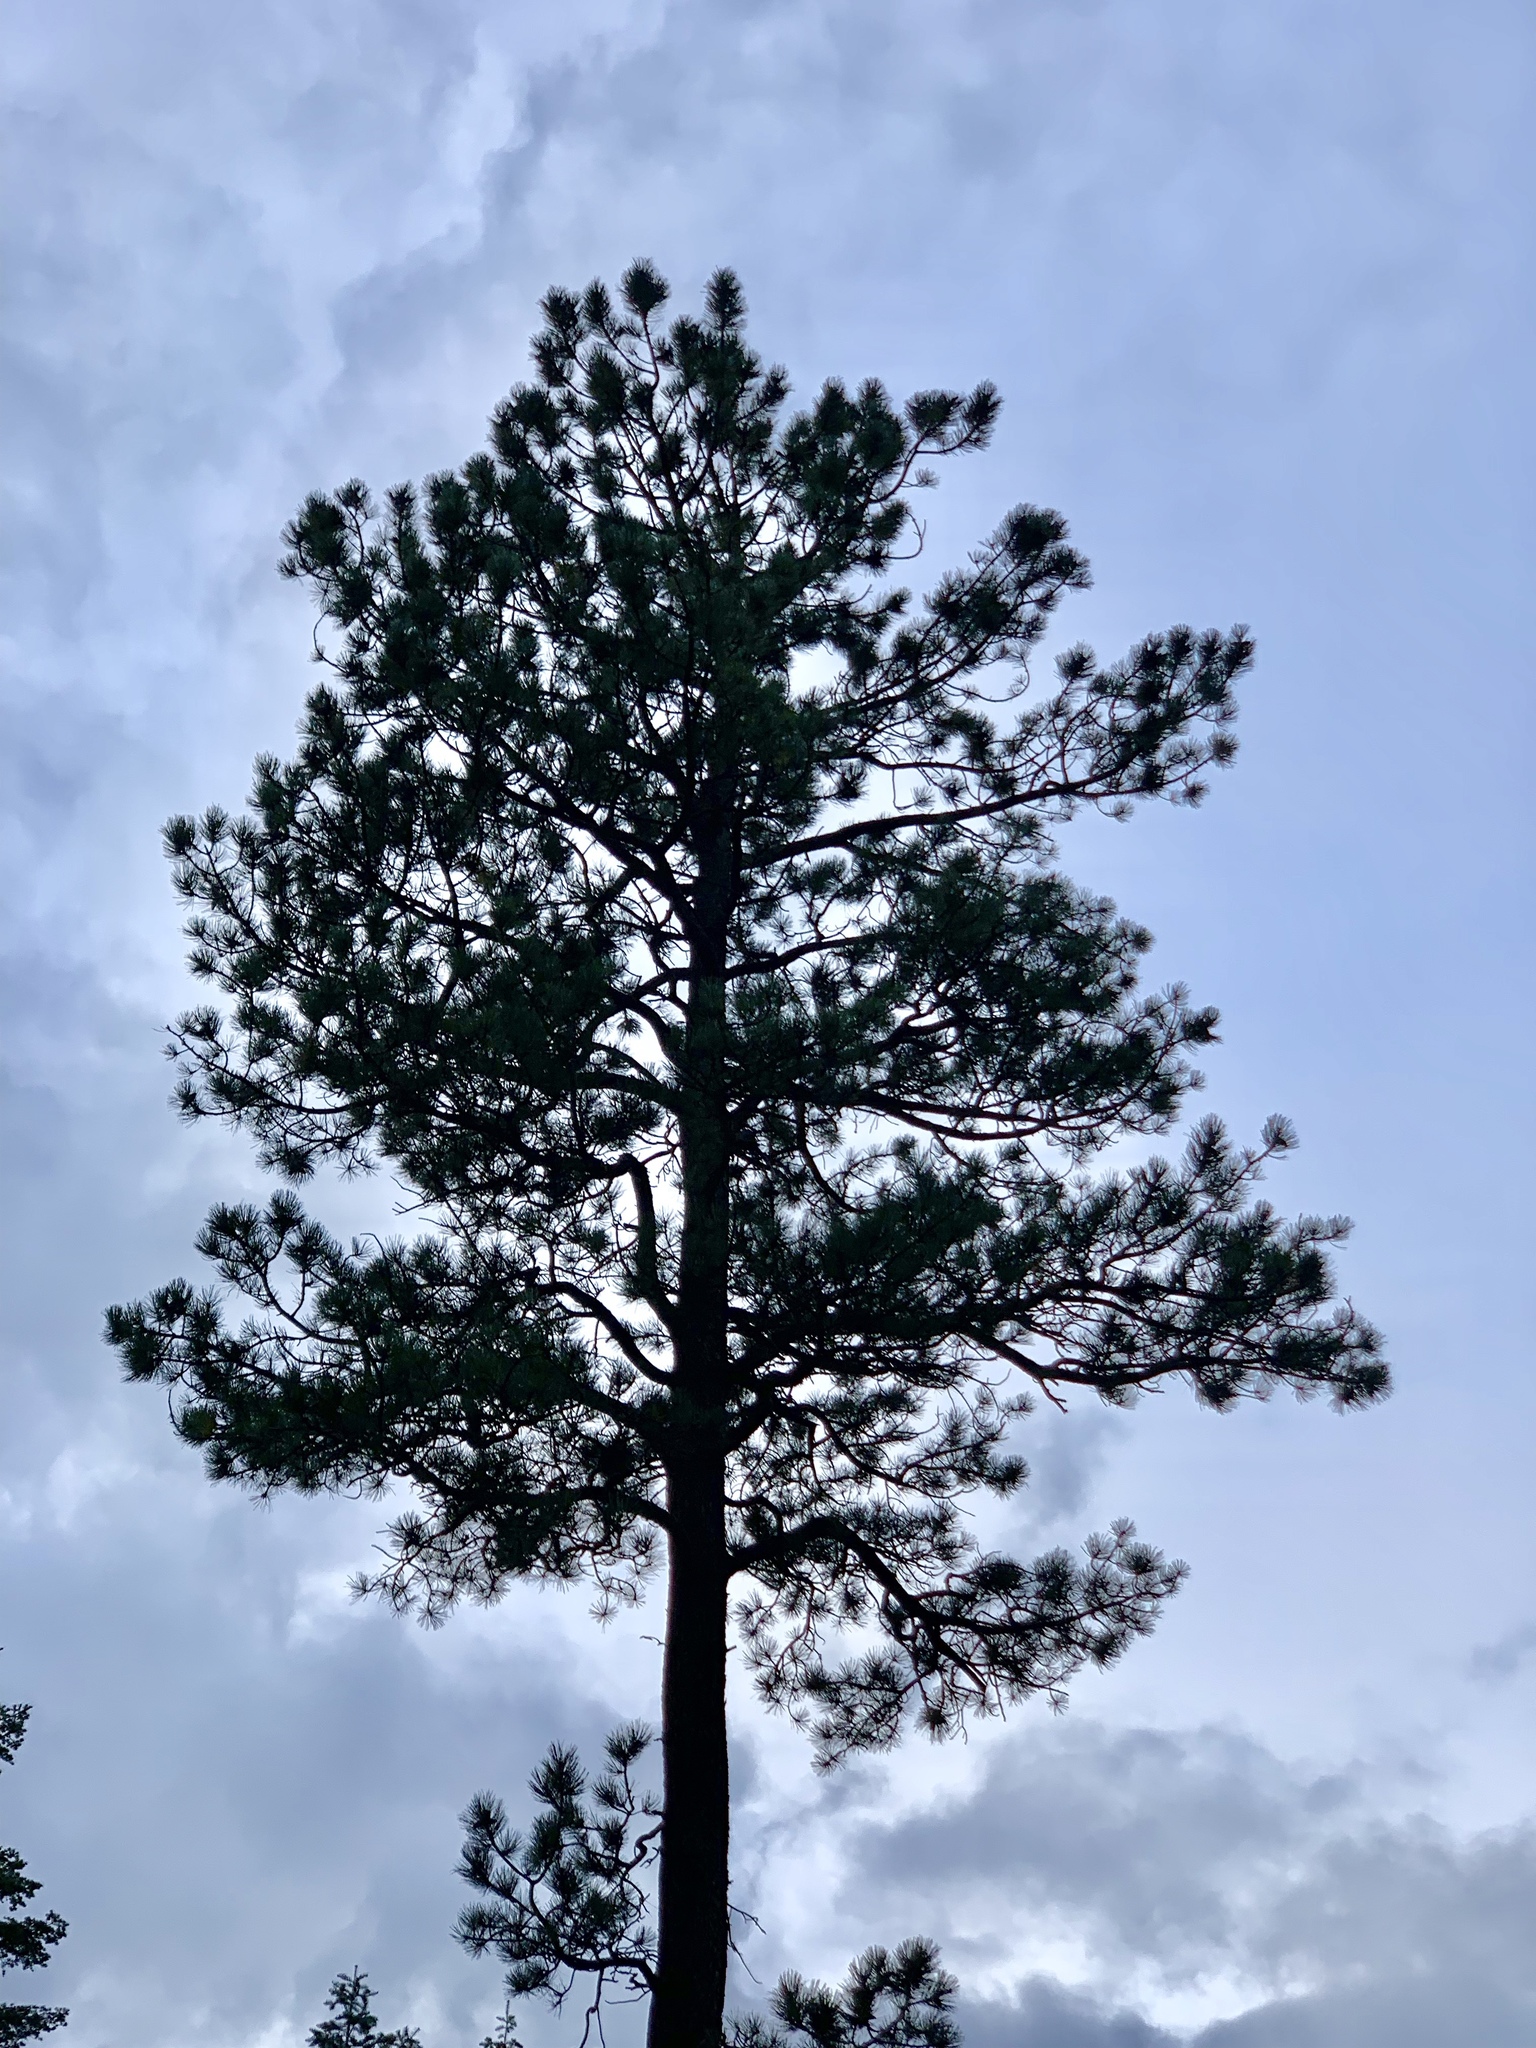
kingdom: Plantae
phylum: Tracheophyta
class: Pinopsida
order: Pinales
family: Pinaceae
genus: Pinus
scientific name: Pinus ponderosa
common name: Western yellow-pine
